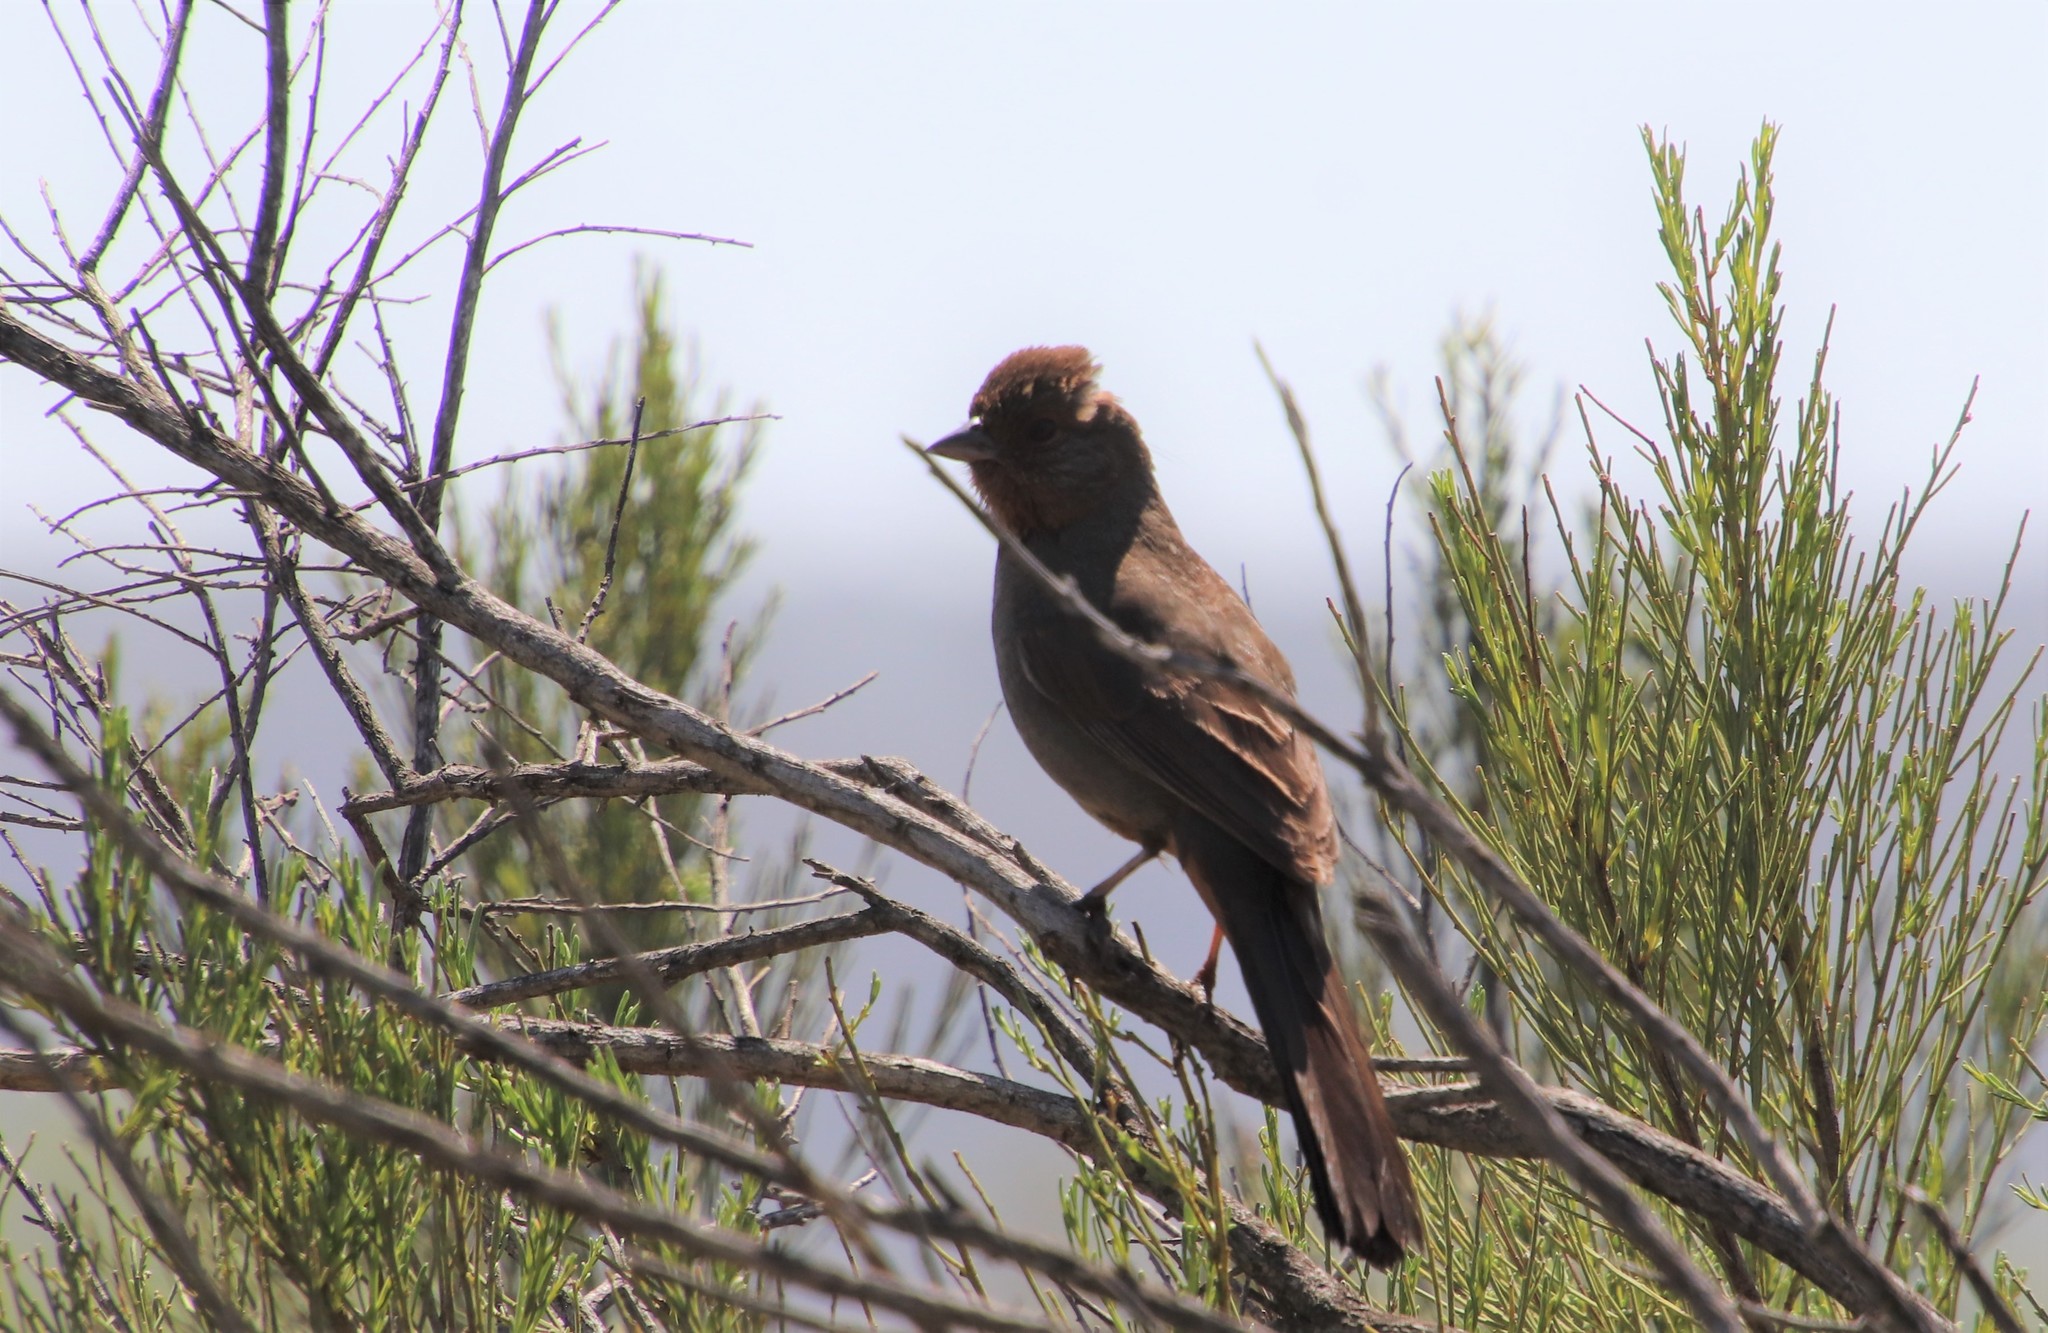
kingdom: Animalia
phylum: Chordata
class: Aves
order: Passeriformes
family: Passerellidae
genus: Melozone
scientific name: Melozone crissalis
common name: California towhee
